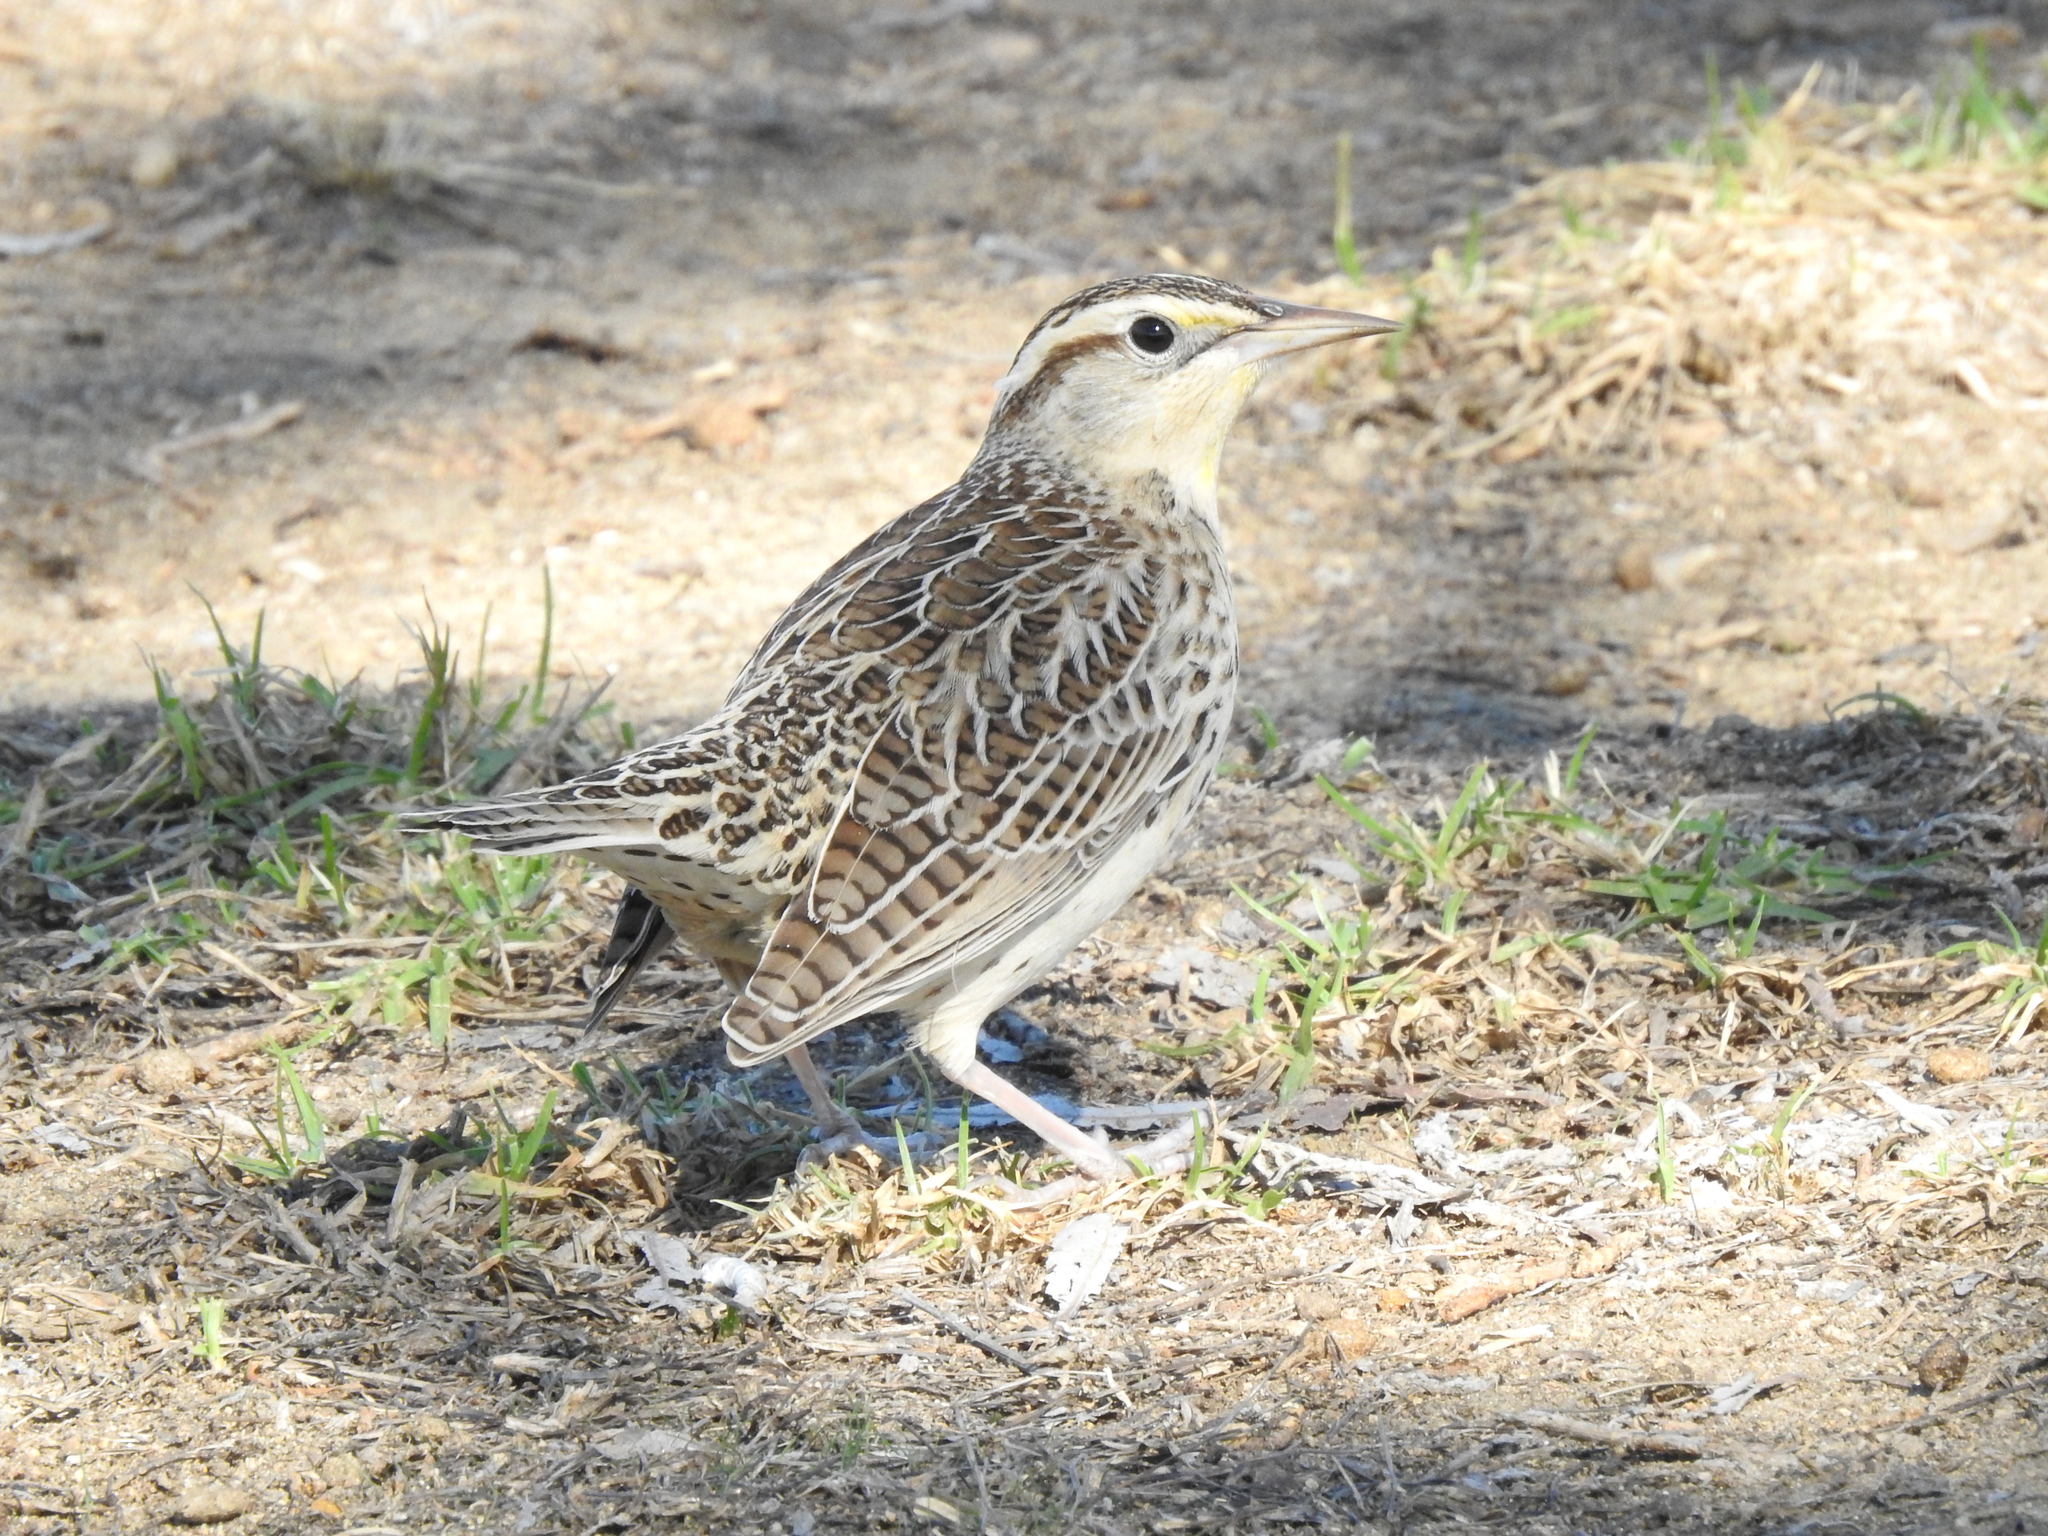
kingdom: Animalia
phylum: Chordata
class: Aves
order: Passeriformes
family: Icteridae
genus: Sturnella
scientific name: Sturnella neglecta
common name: Western meadowlark
